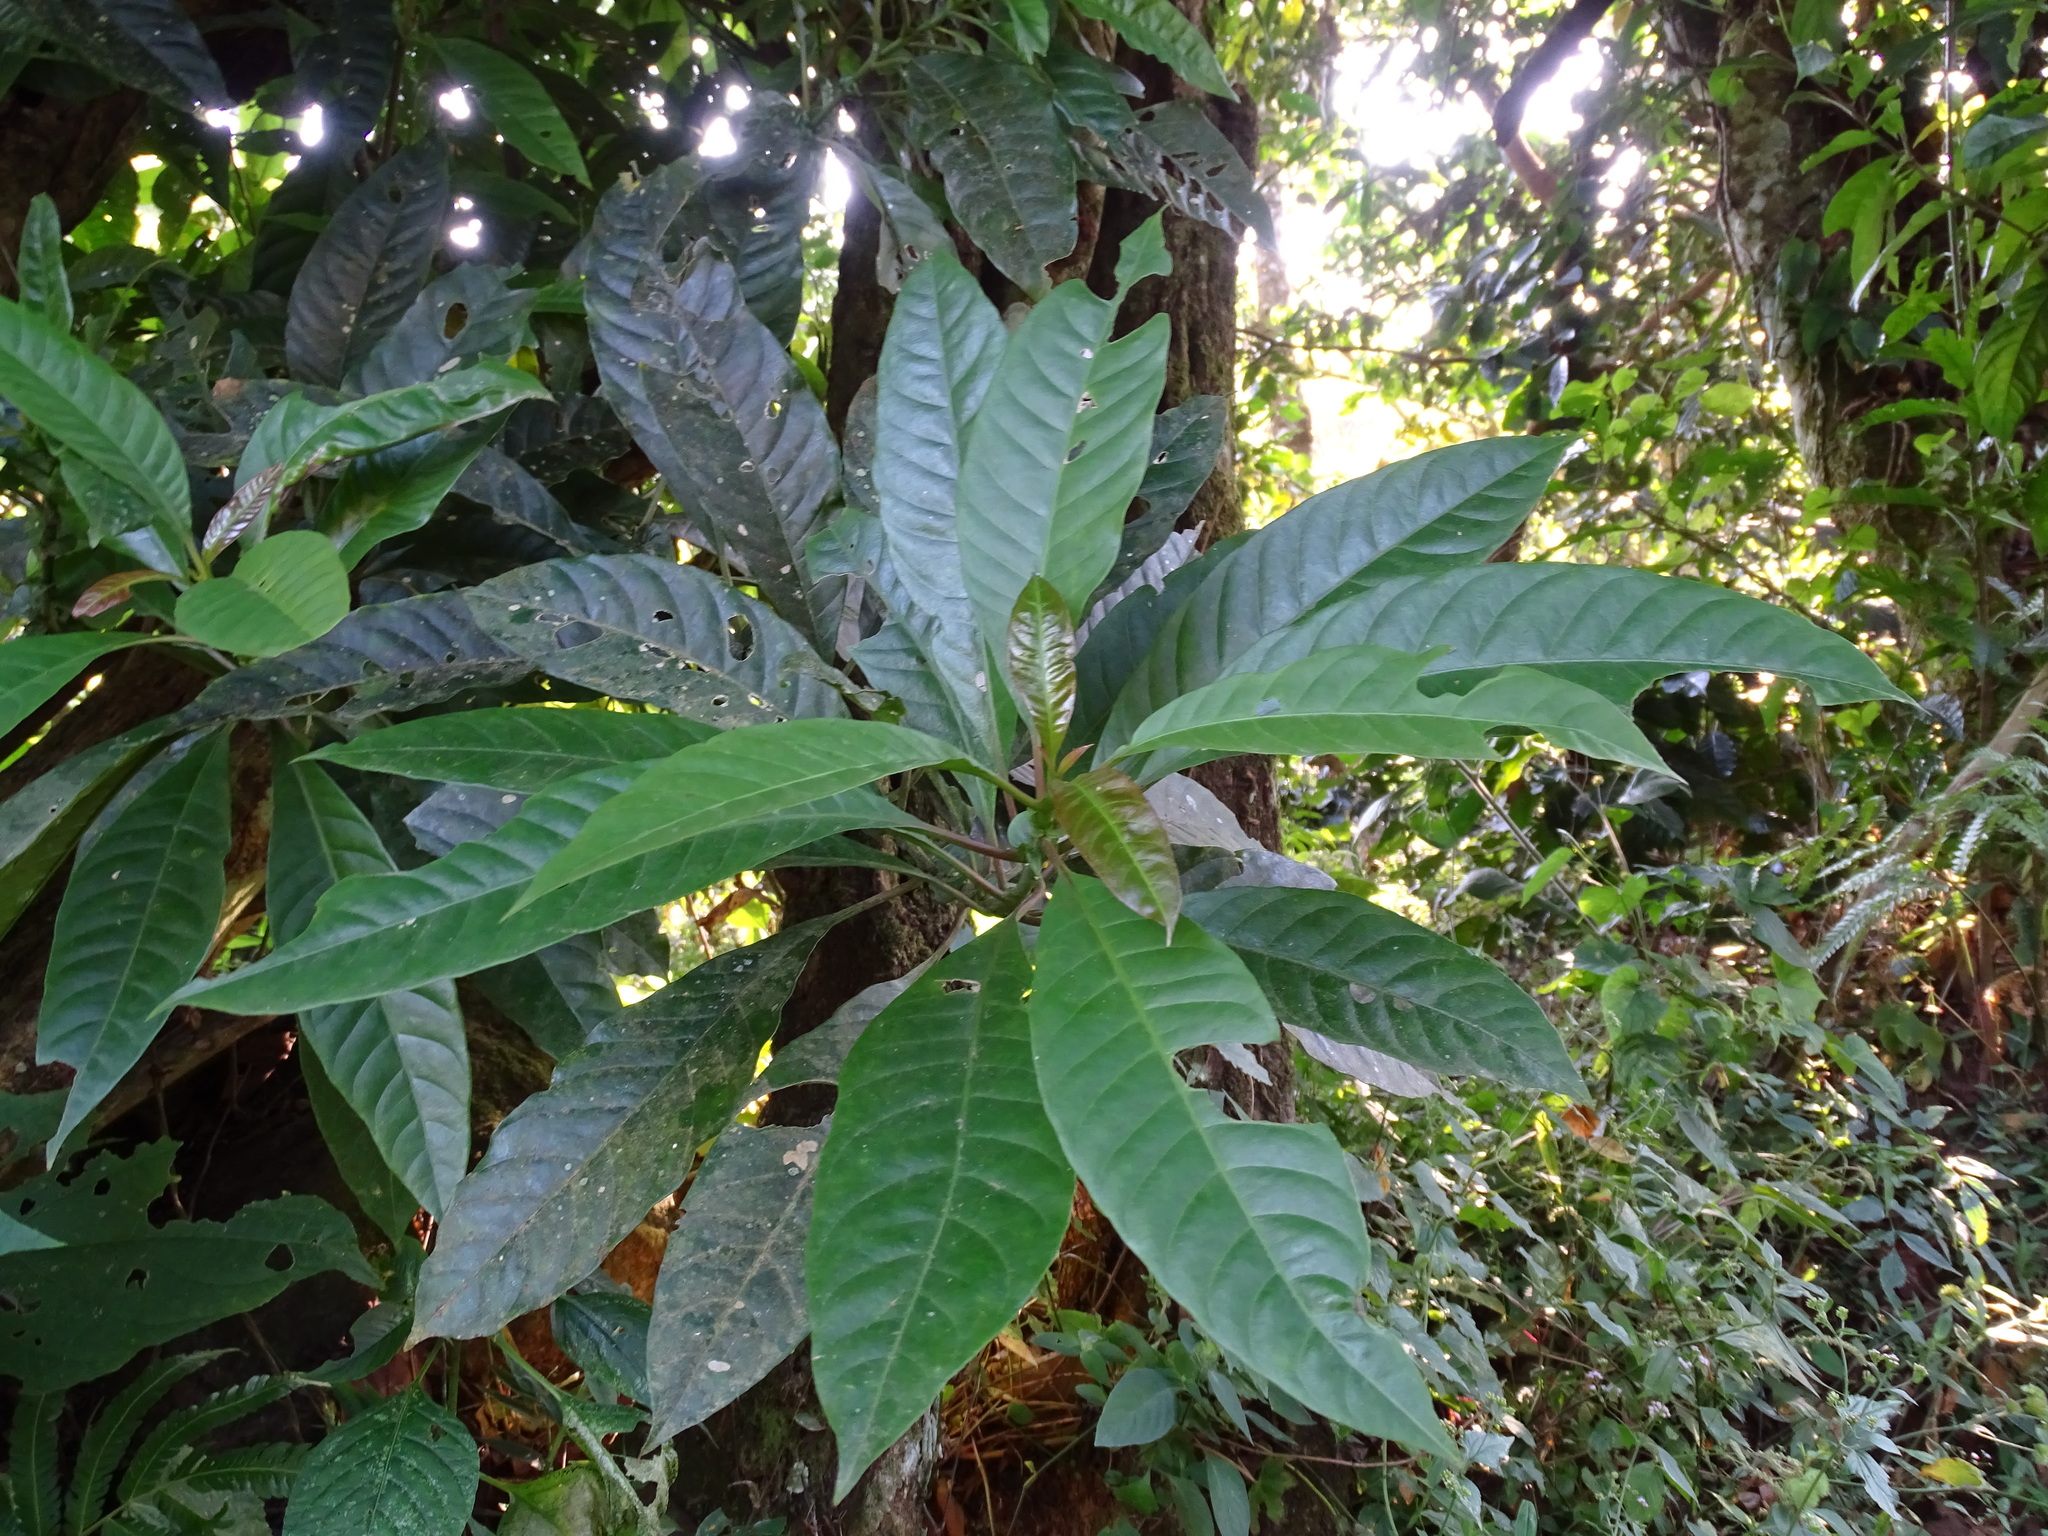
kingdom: Plantae
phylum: Tracheophyta
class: Magnoliopsida
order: Caryophyllales
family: Amaranthaceae
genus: Iresine
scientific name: Iresine arbuscula
